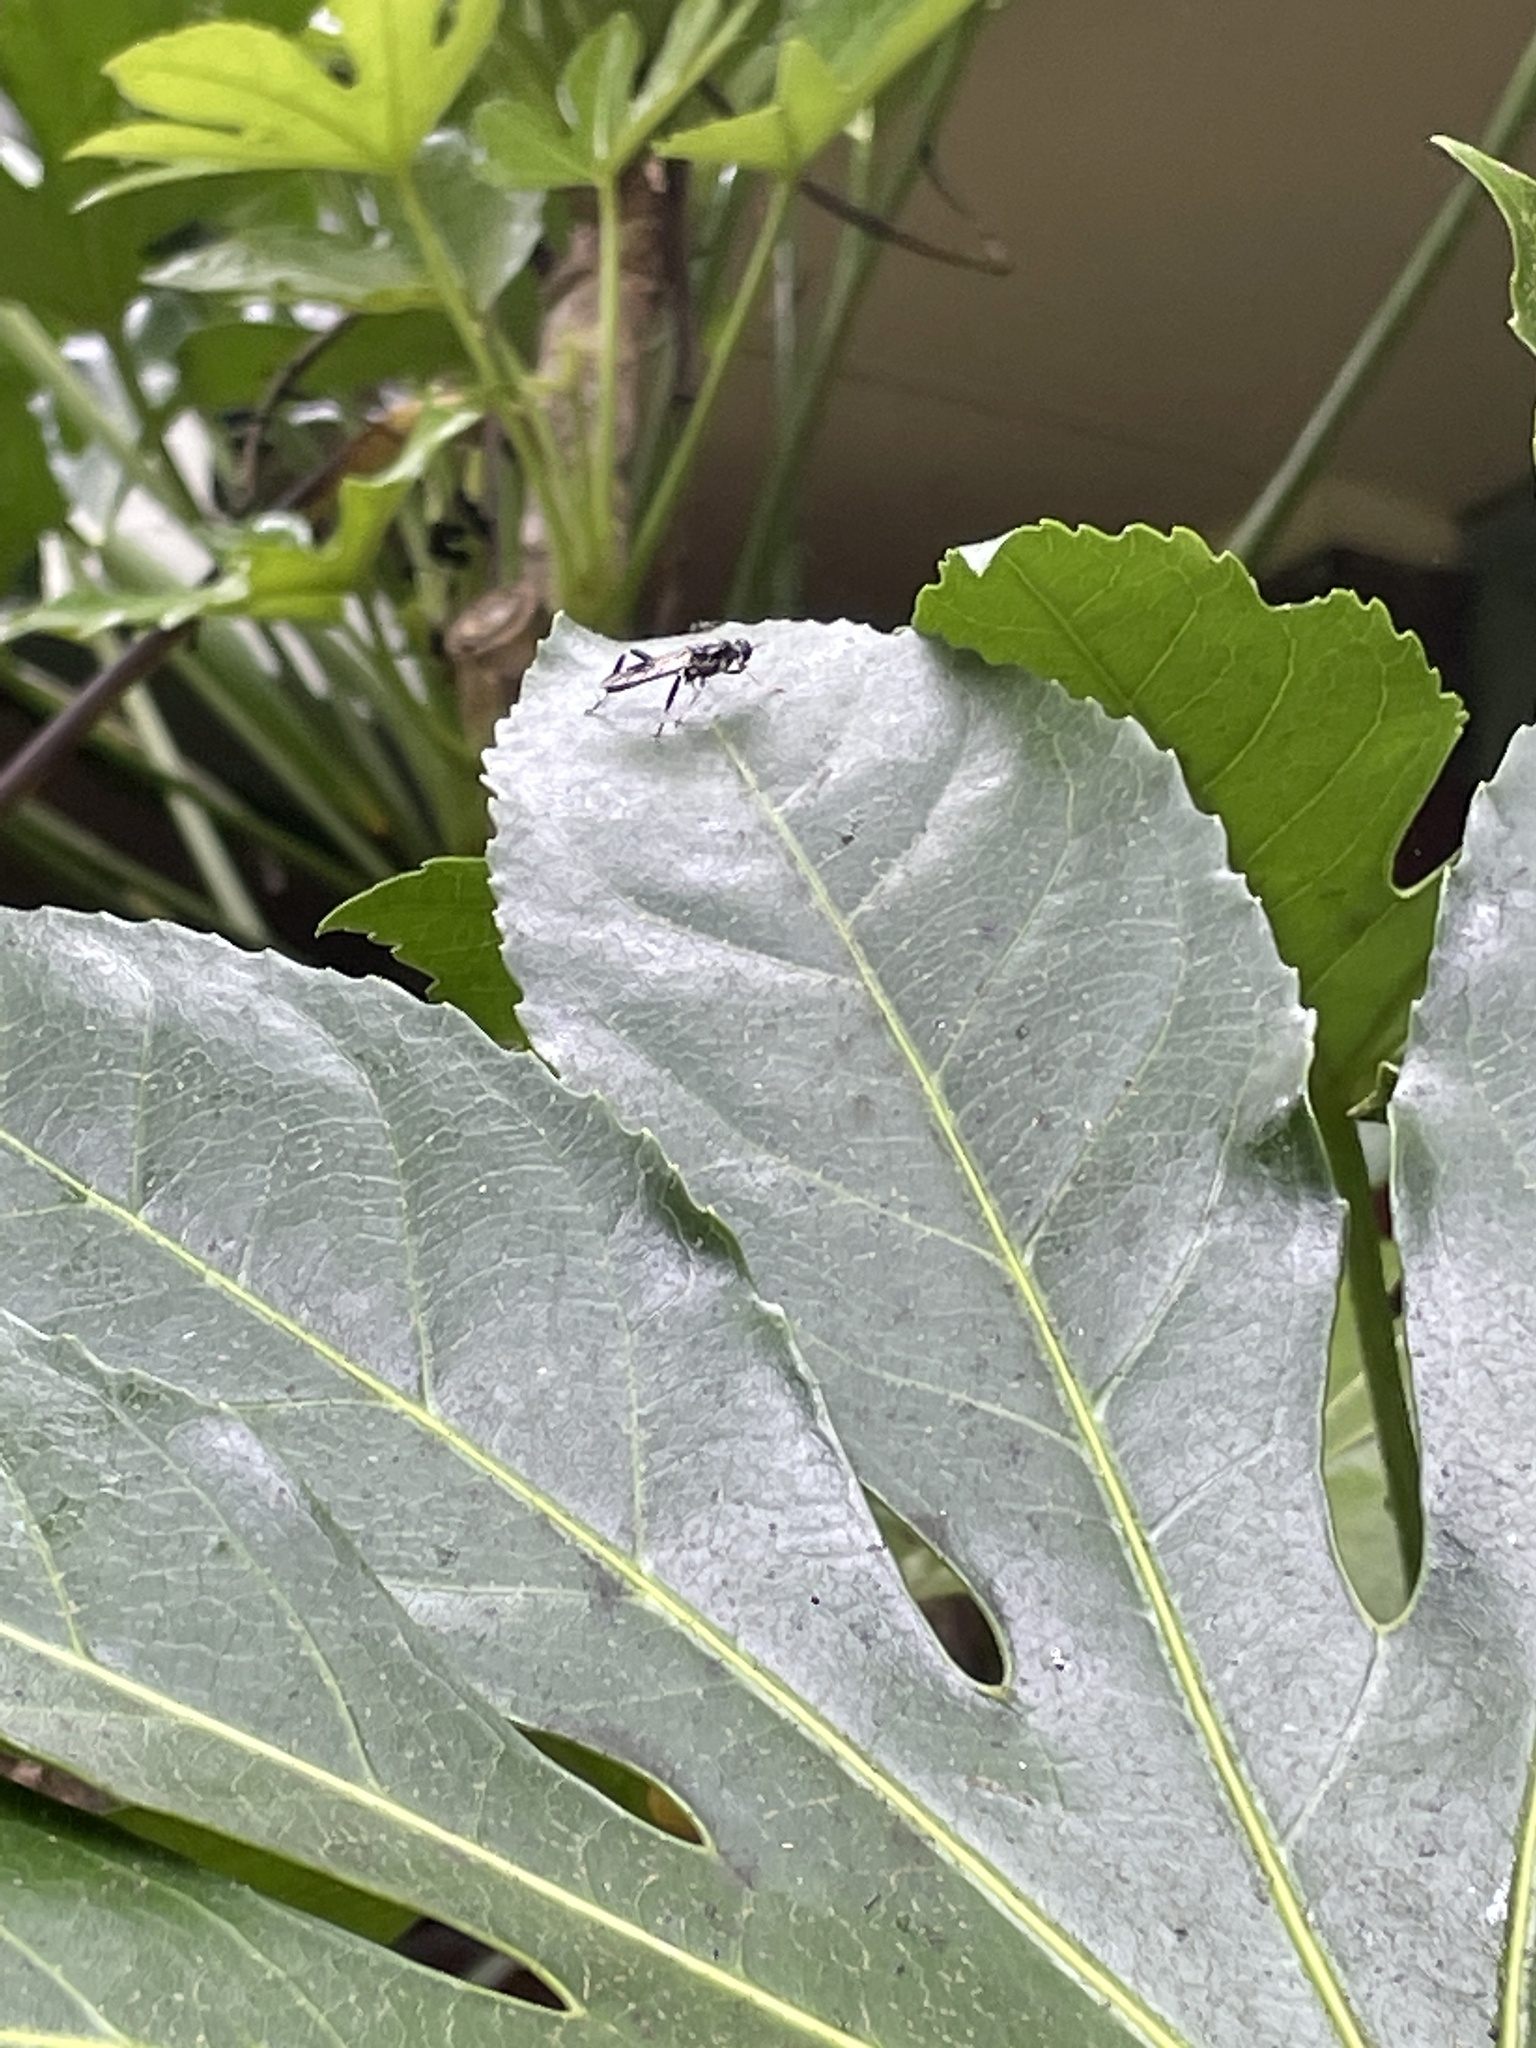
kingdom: Animalia
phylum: Arthropoda
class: Insecta
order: Diptera
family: Stratiomyidae
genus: Exaireta
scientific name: Exaireta spinigera
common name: Blue soldier fly
